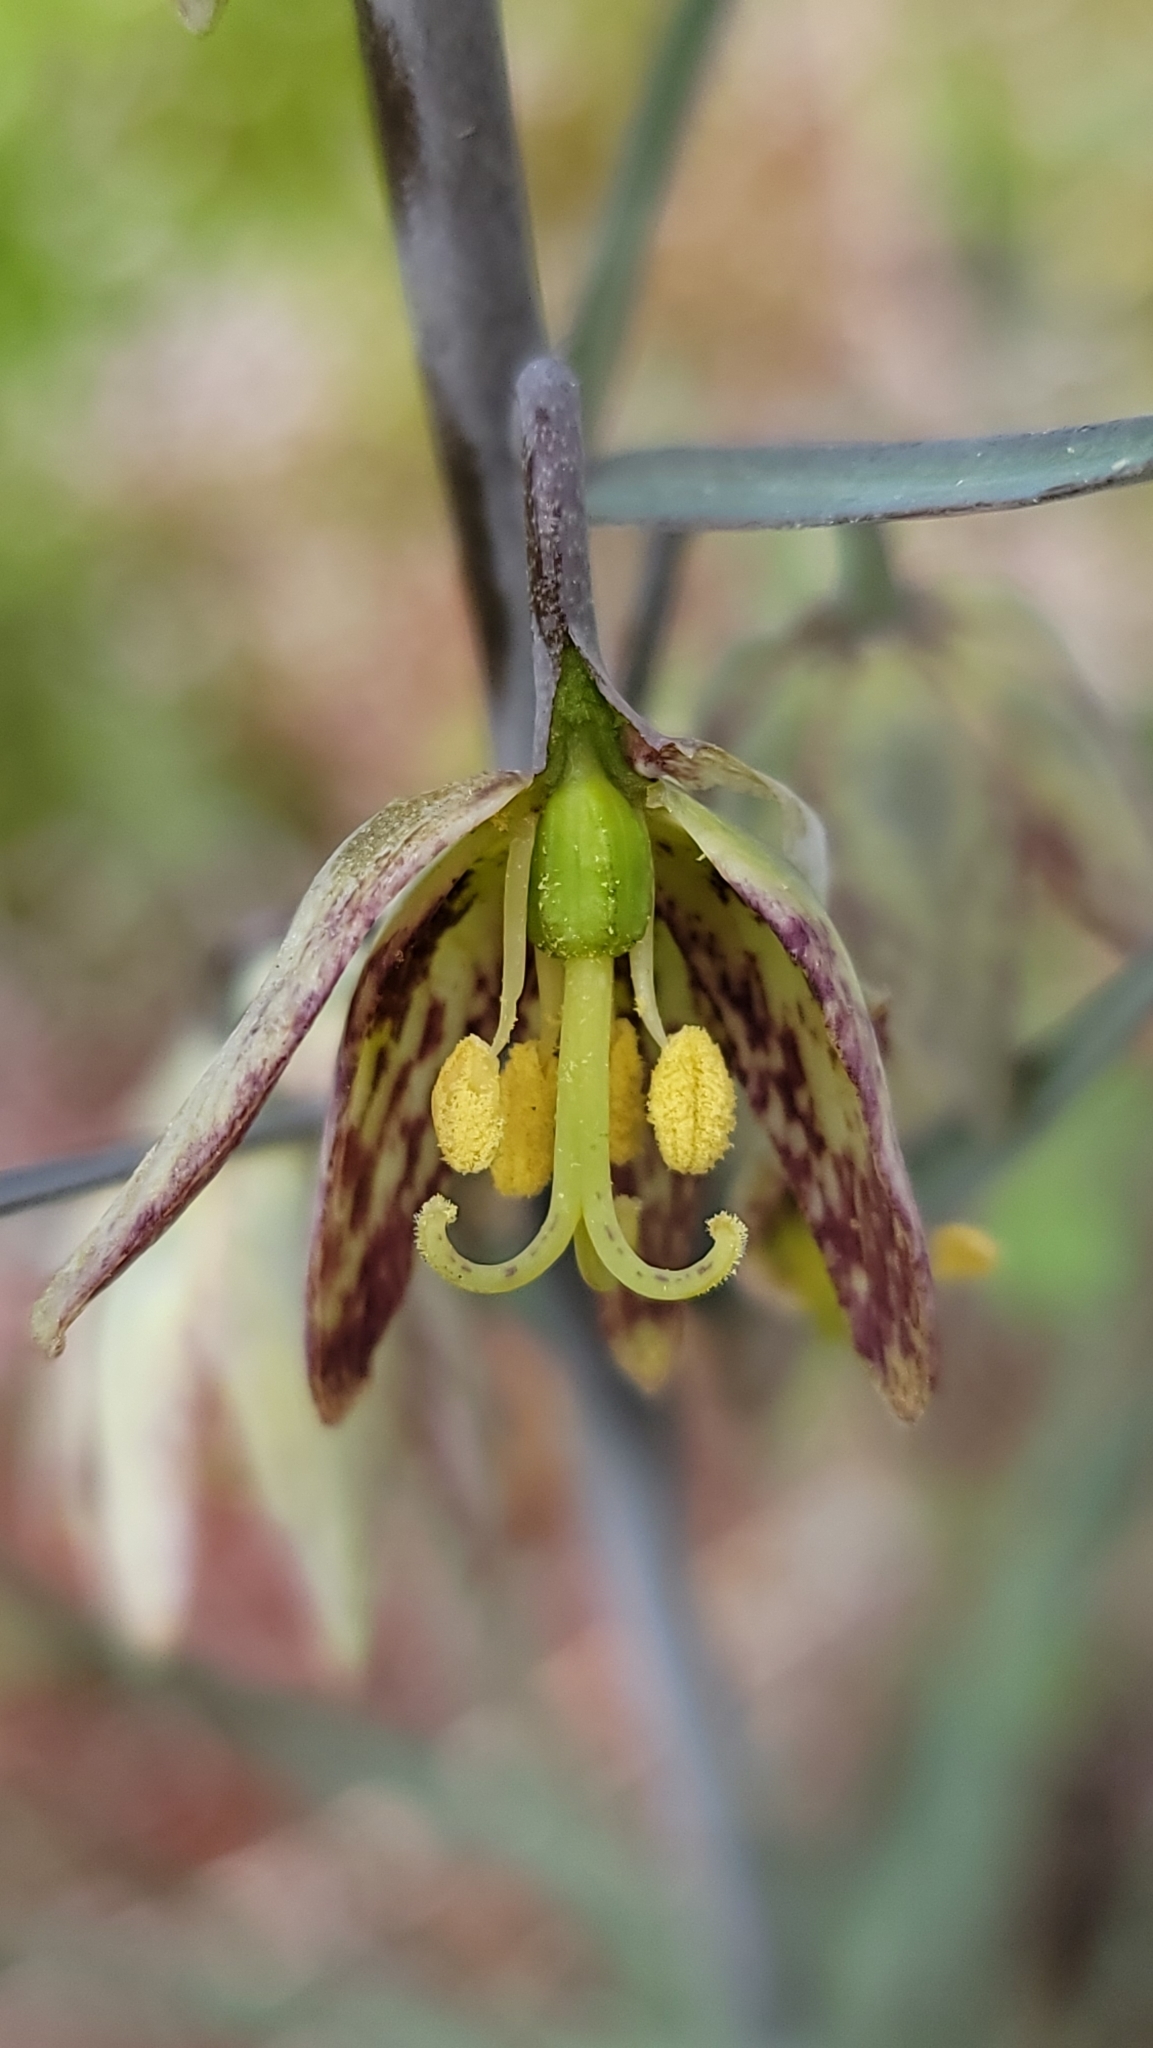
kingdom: Plantae
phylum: Tracheophyta
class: Liliopsida
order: Liliales
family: Liliaceae
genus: Fritillaria
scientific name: Fritillaria micrantha
